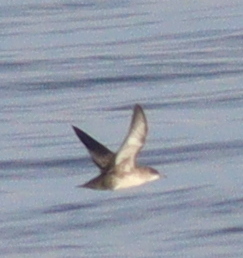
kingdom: Animalia
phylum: Chordata
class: Aves
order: Procellariiformes
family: Procellariidae
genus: Puffinus
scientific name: Puffinus mauretanicus
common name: Balearic shearwater
